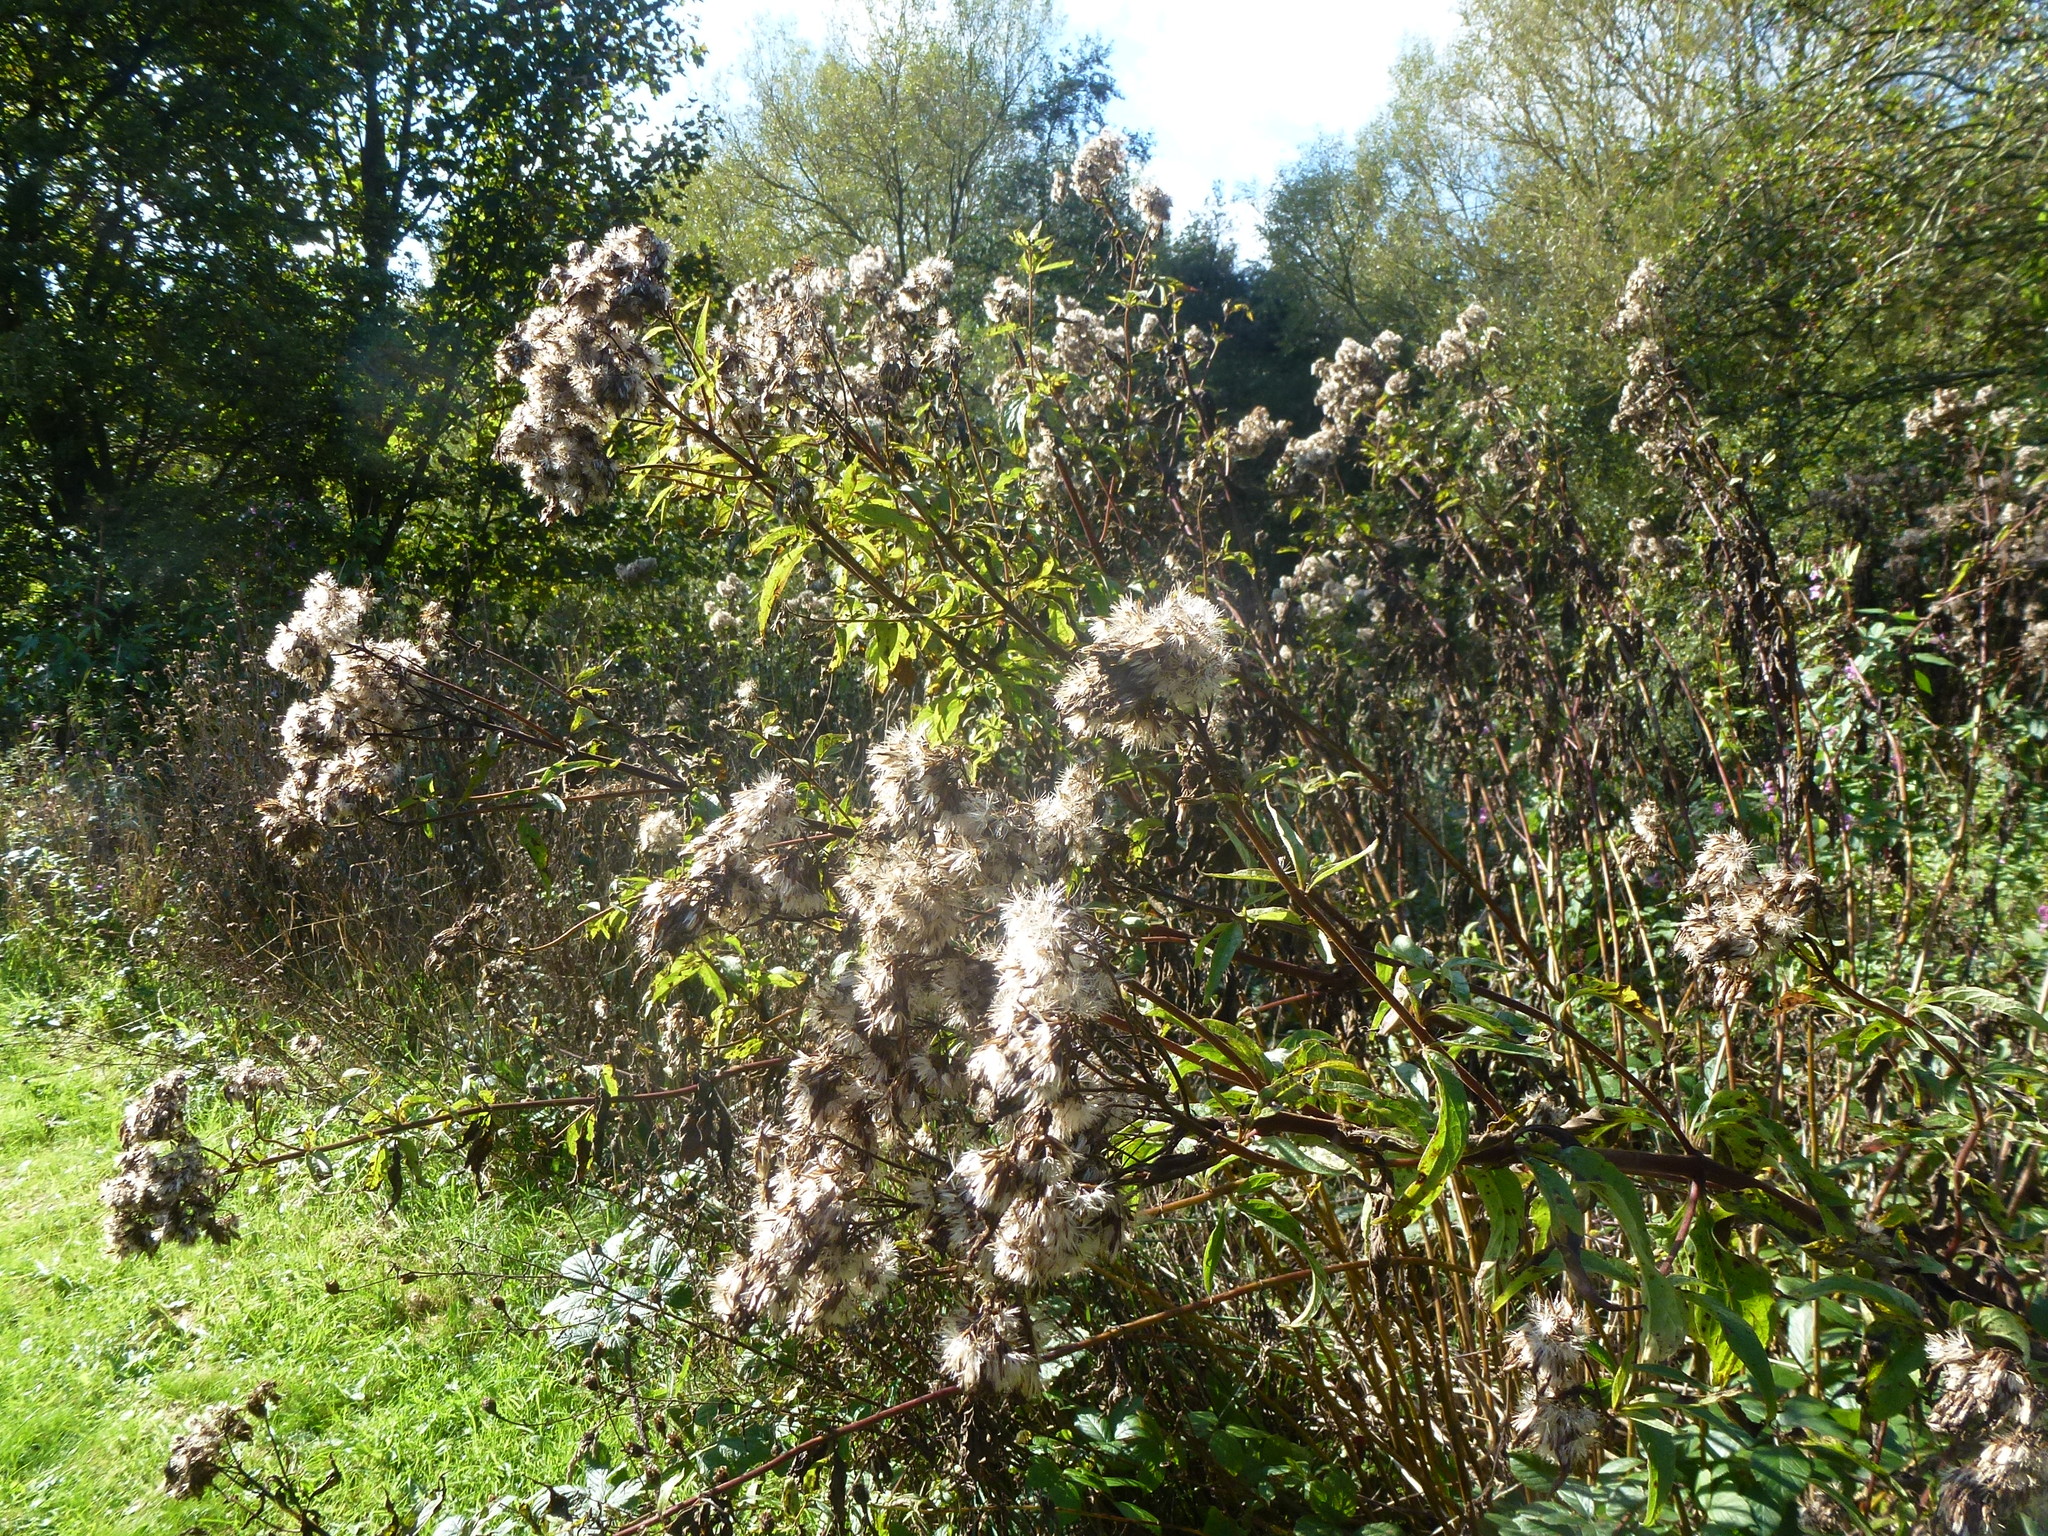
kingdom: Plantae
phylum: Tracheophyta
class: Magnoliopsida
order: Asterales
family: Asteraceae
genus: Eupatorium
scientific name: Eupatorium cannabinum
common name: Hemp-agrimony
